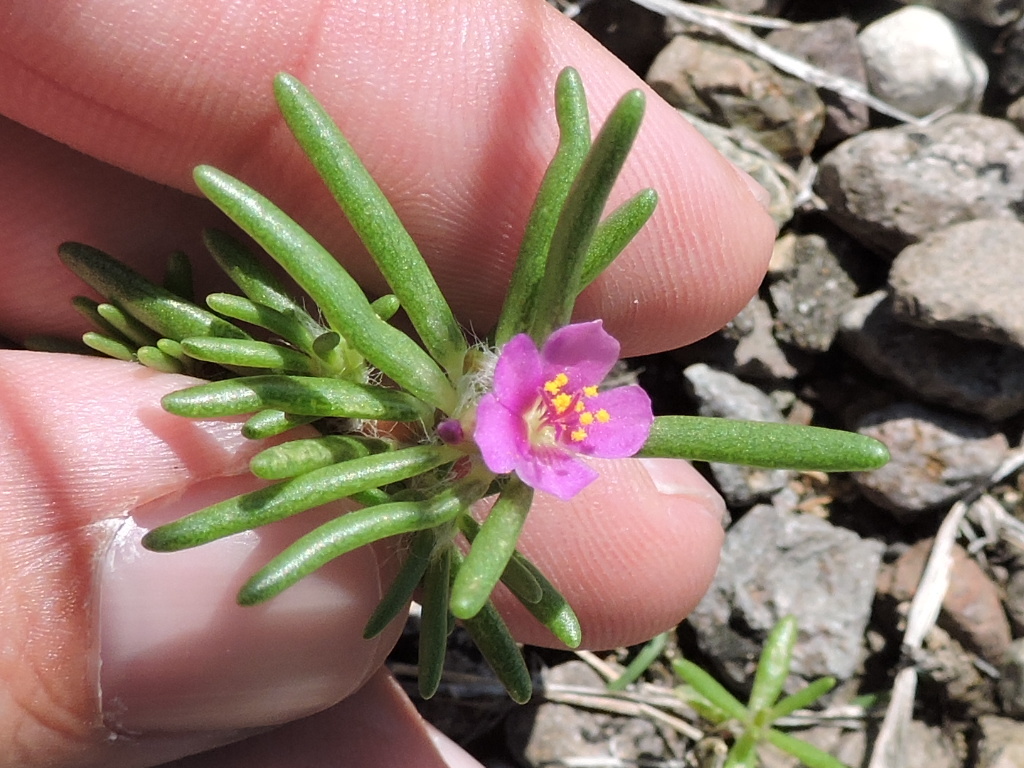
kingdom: Plantae
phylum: Tracheophyta
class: Magnoliopsida
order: Caryophyllales
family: Portulacaceae
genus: Portulaca
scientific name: Portulaca pilosa
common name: Kiss me quick
